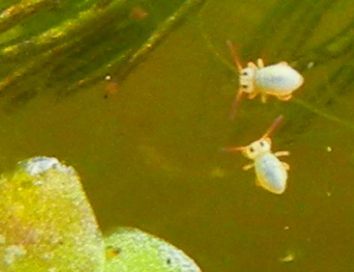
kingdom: Animalia
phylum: Arthropoda
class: Collembola
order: Symphypleona
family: Sminthurididae
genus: Sminthurides
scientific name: Sminthurides aquaticus
